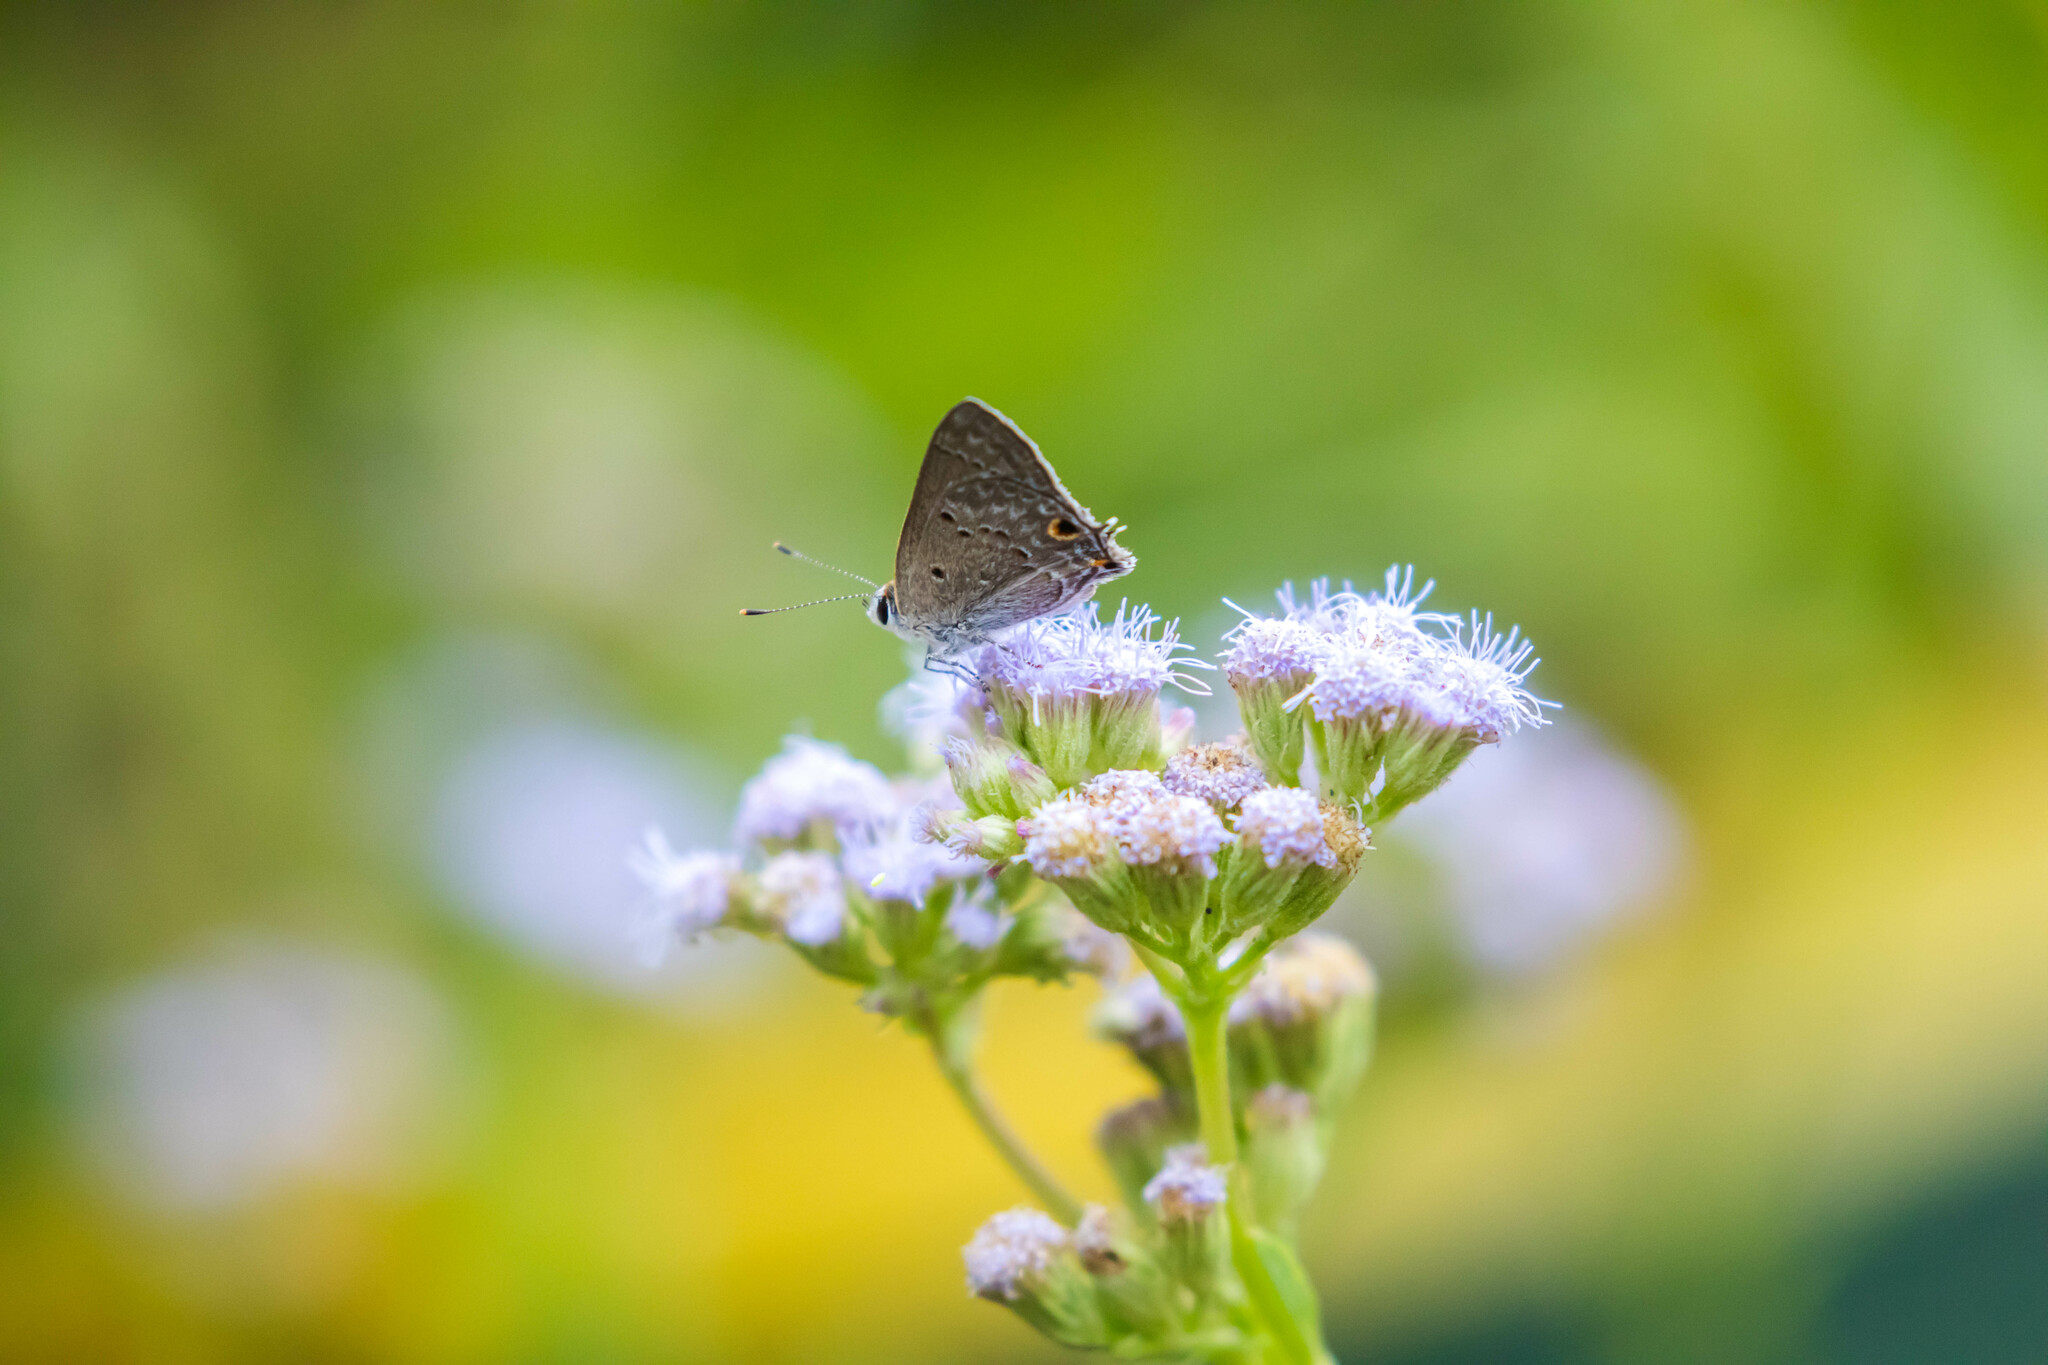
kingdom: Animalia
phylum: Arthropoda
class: Insecta
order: Lepidoptera
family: Lycaenidae
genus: Callicista
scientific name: Callicista columella
